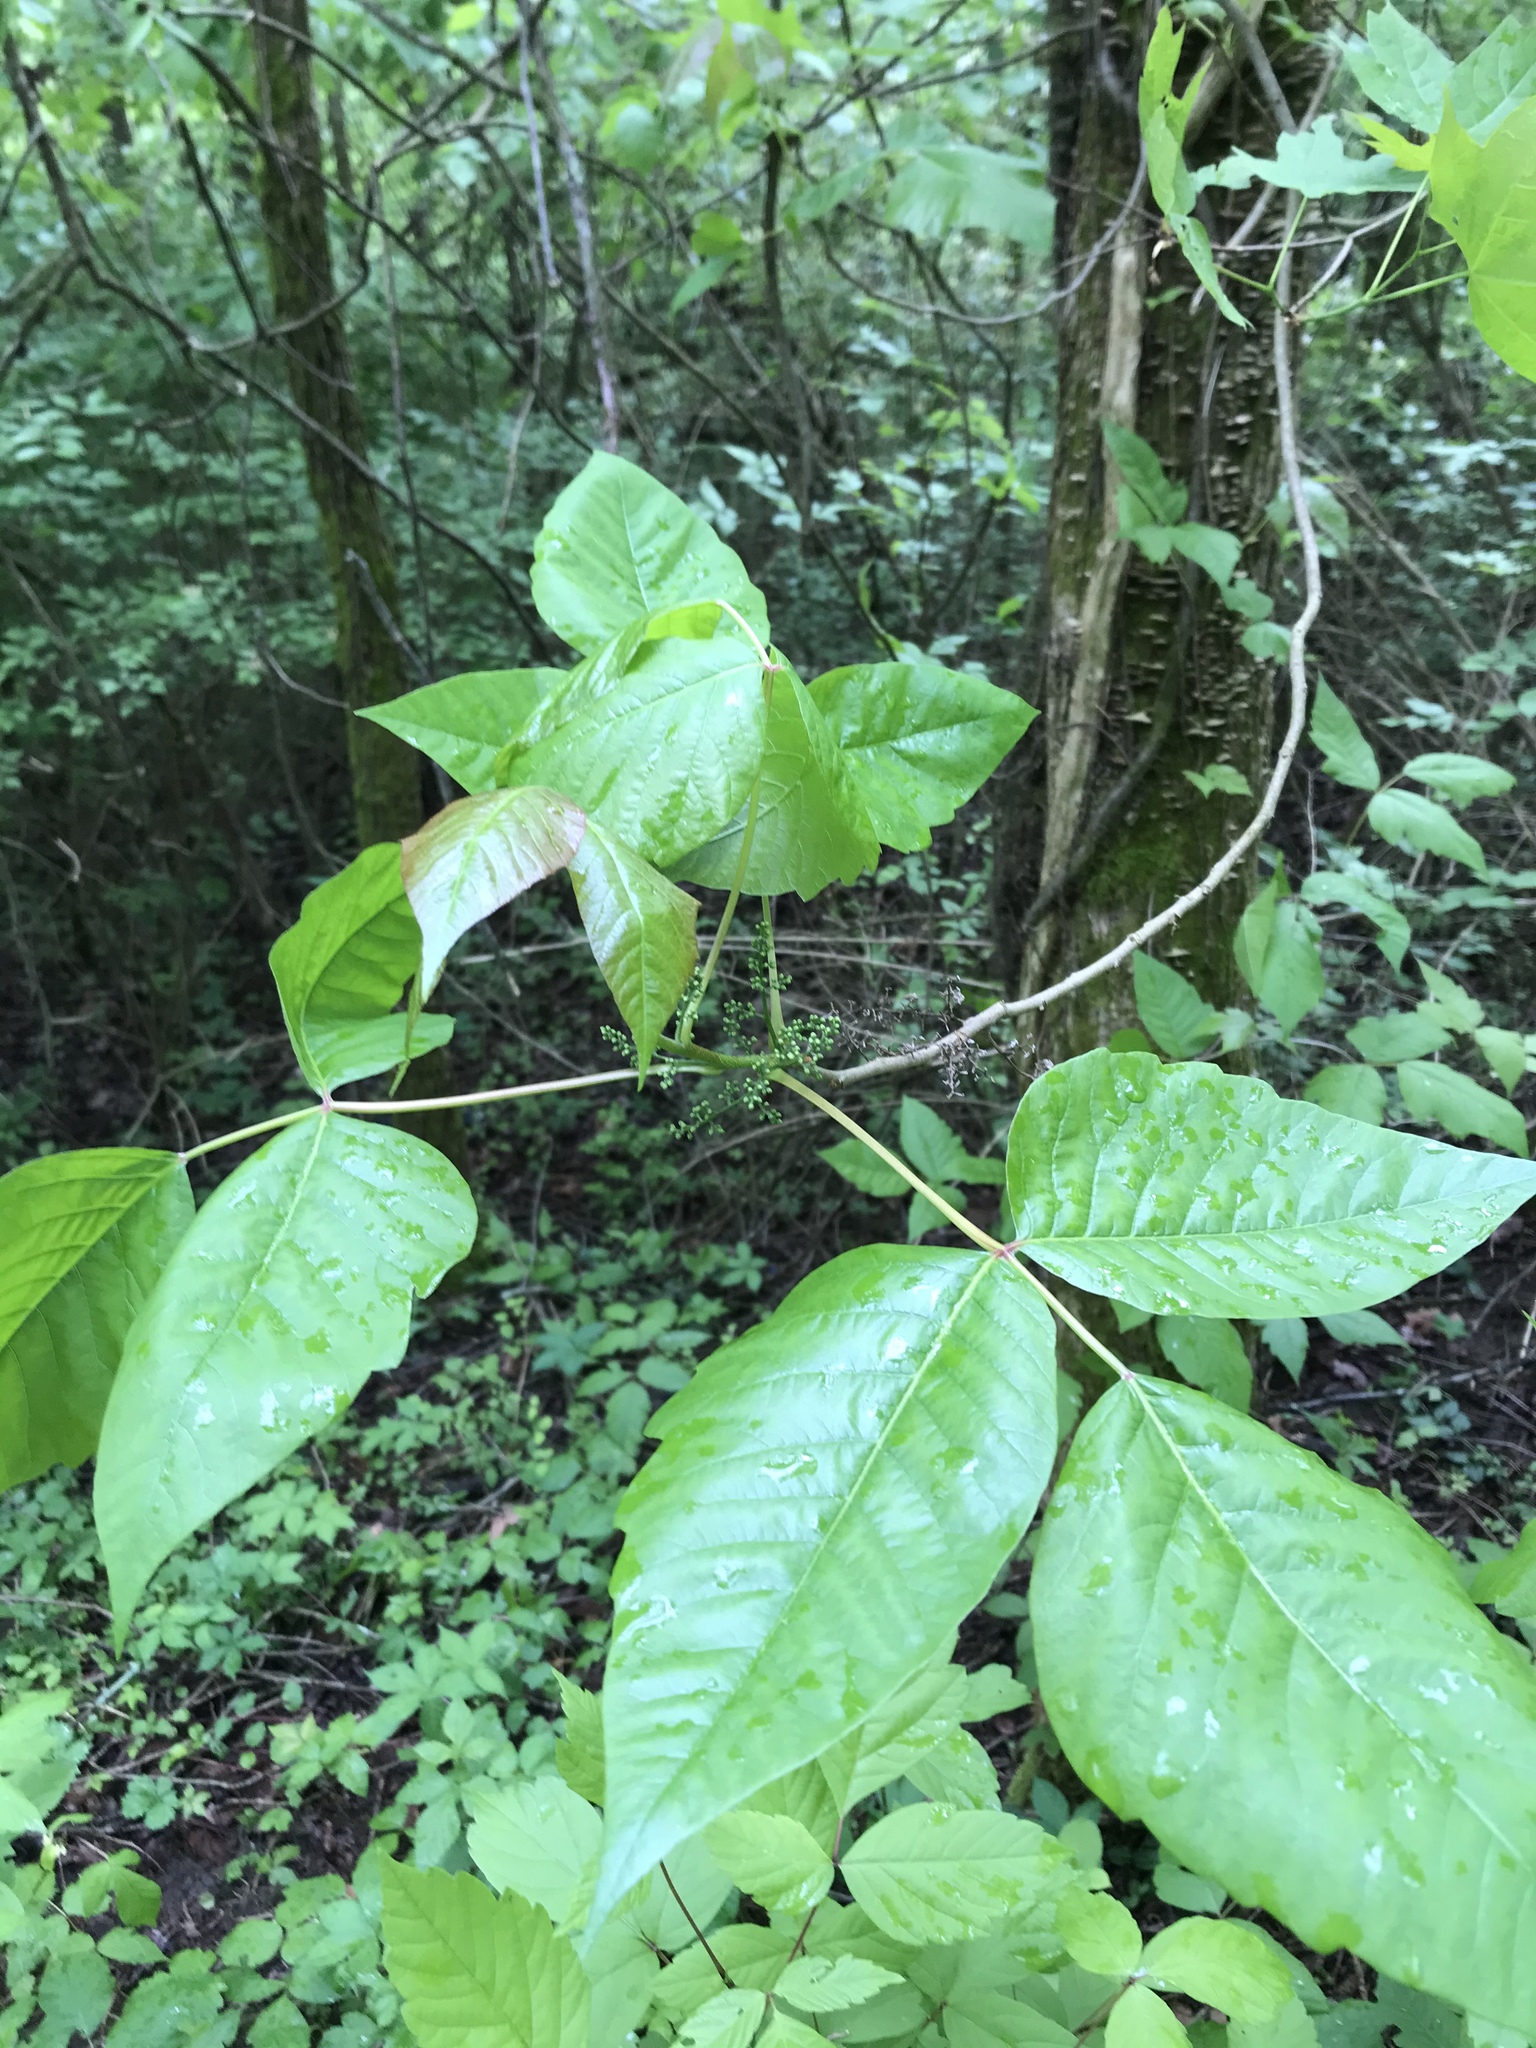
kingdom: Plantae
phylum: Tracheophyta
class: Magnoliopsida
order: Sapindales
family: Anacardiaceae
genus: Toxicodendron
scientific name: Toxicodendron radicans
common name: Poison ivy
